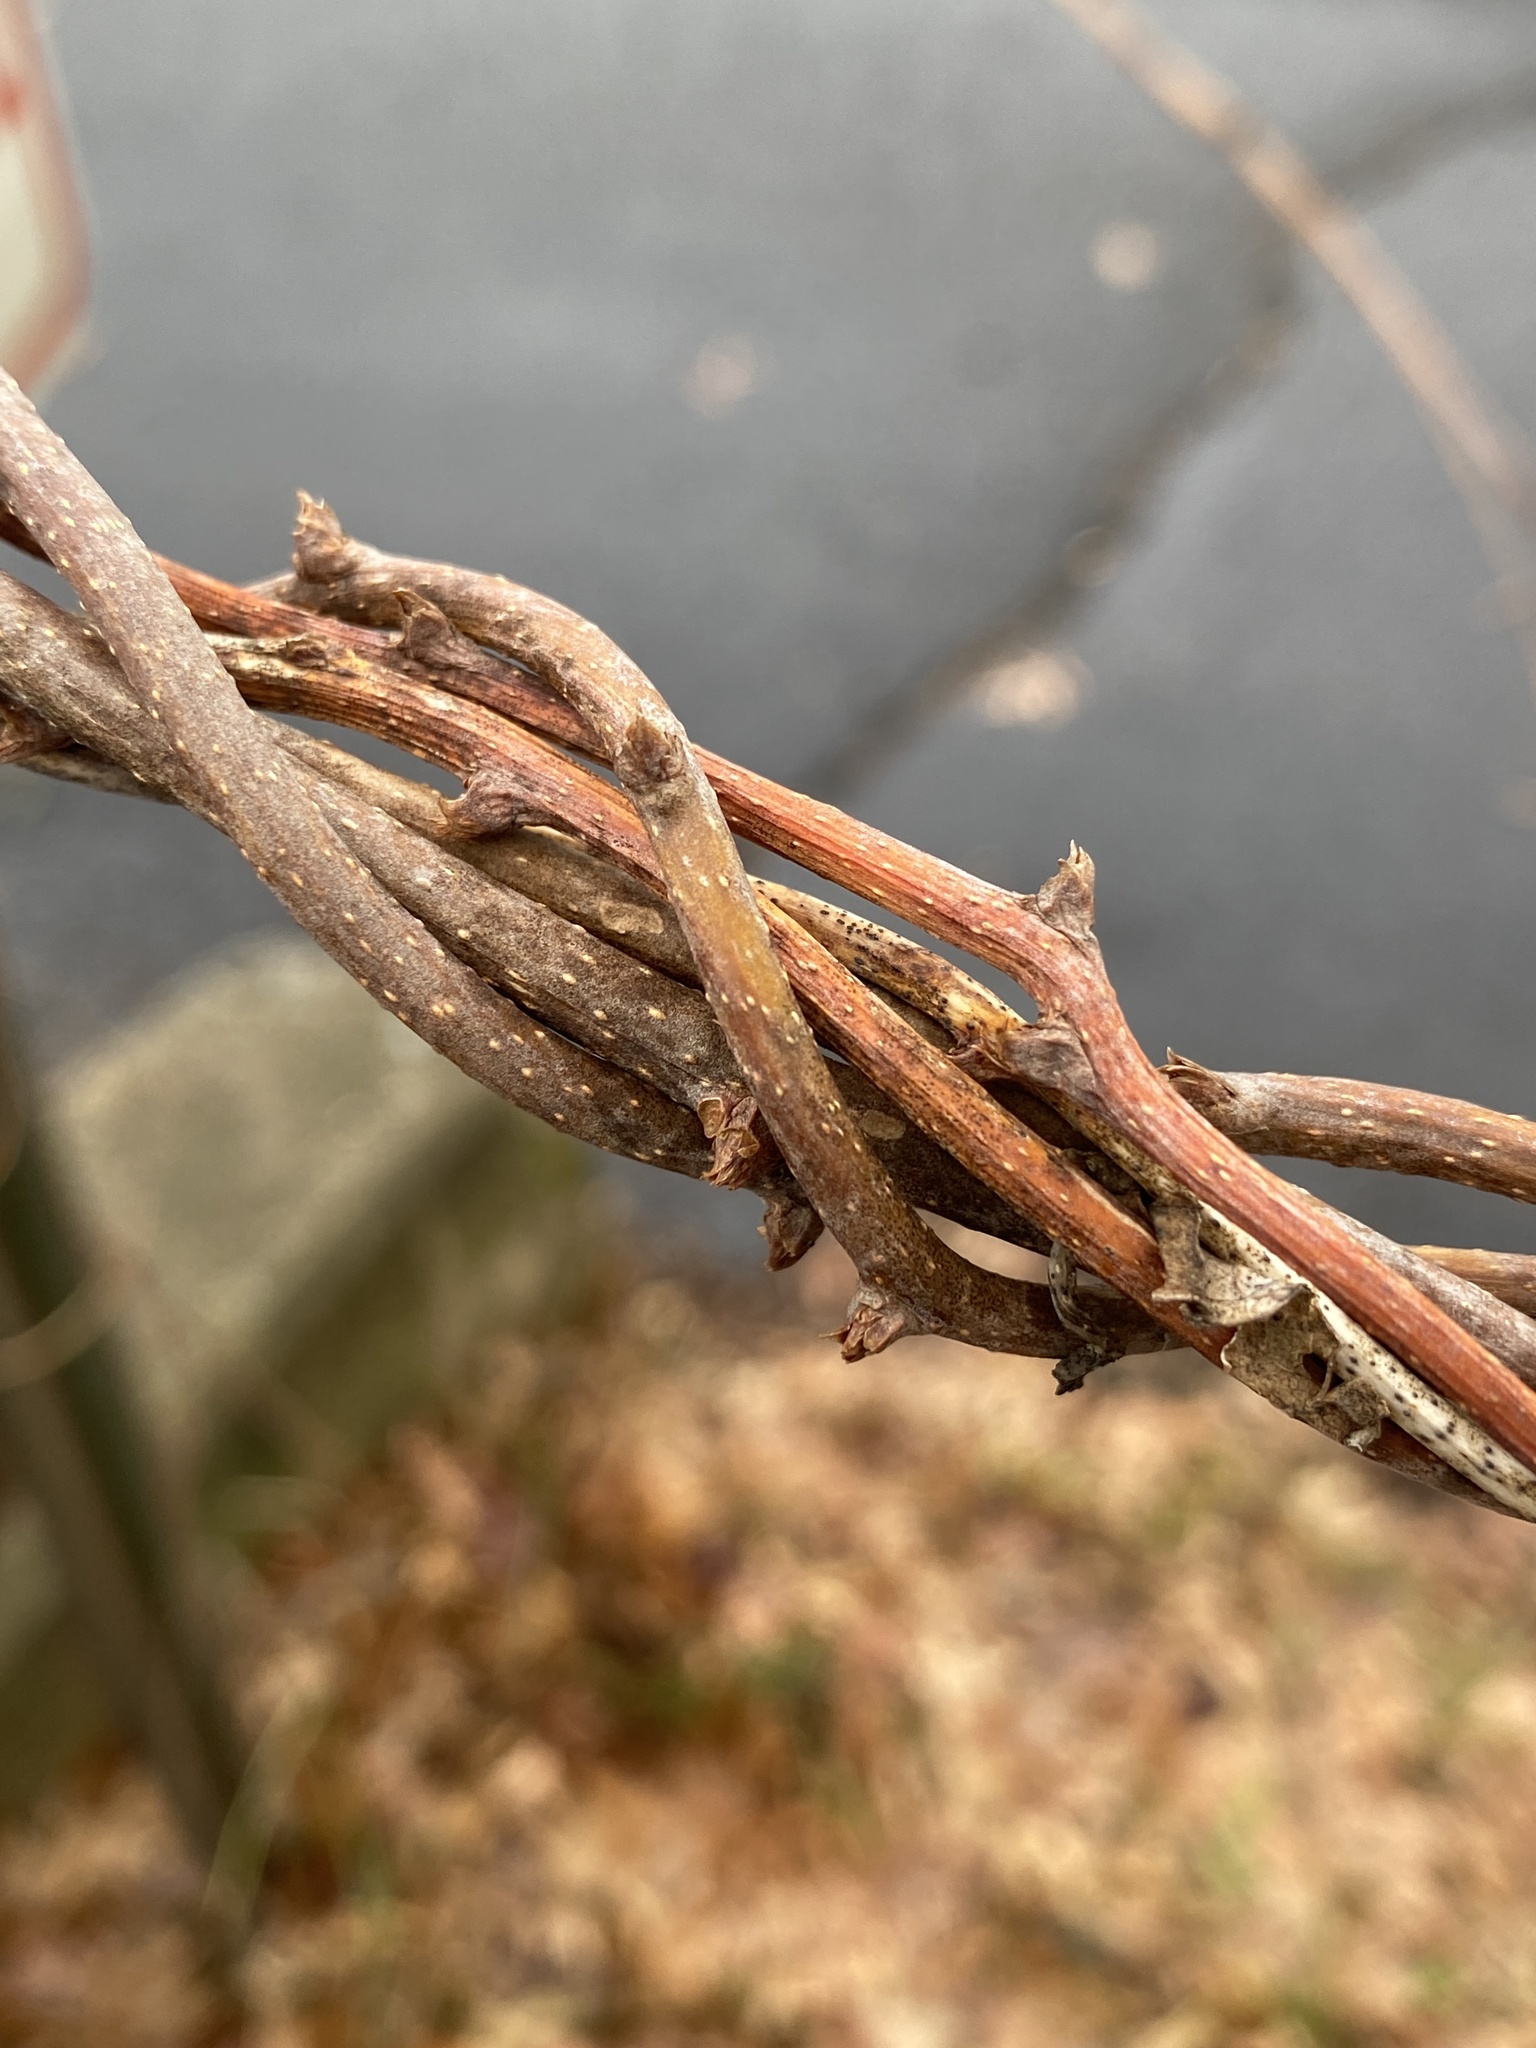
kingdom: Plantae
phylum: Tracheophyta
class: Magnoliopsida
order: Celastrales
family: Celastraceae
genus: Celastrus
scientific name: Celastrus orbiculatus
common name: Oriental bittersweet
